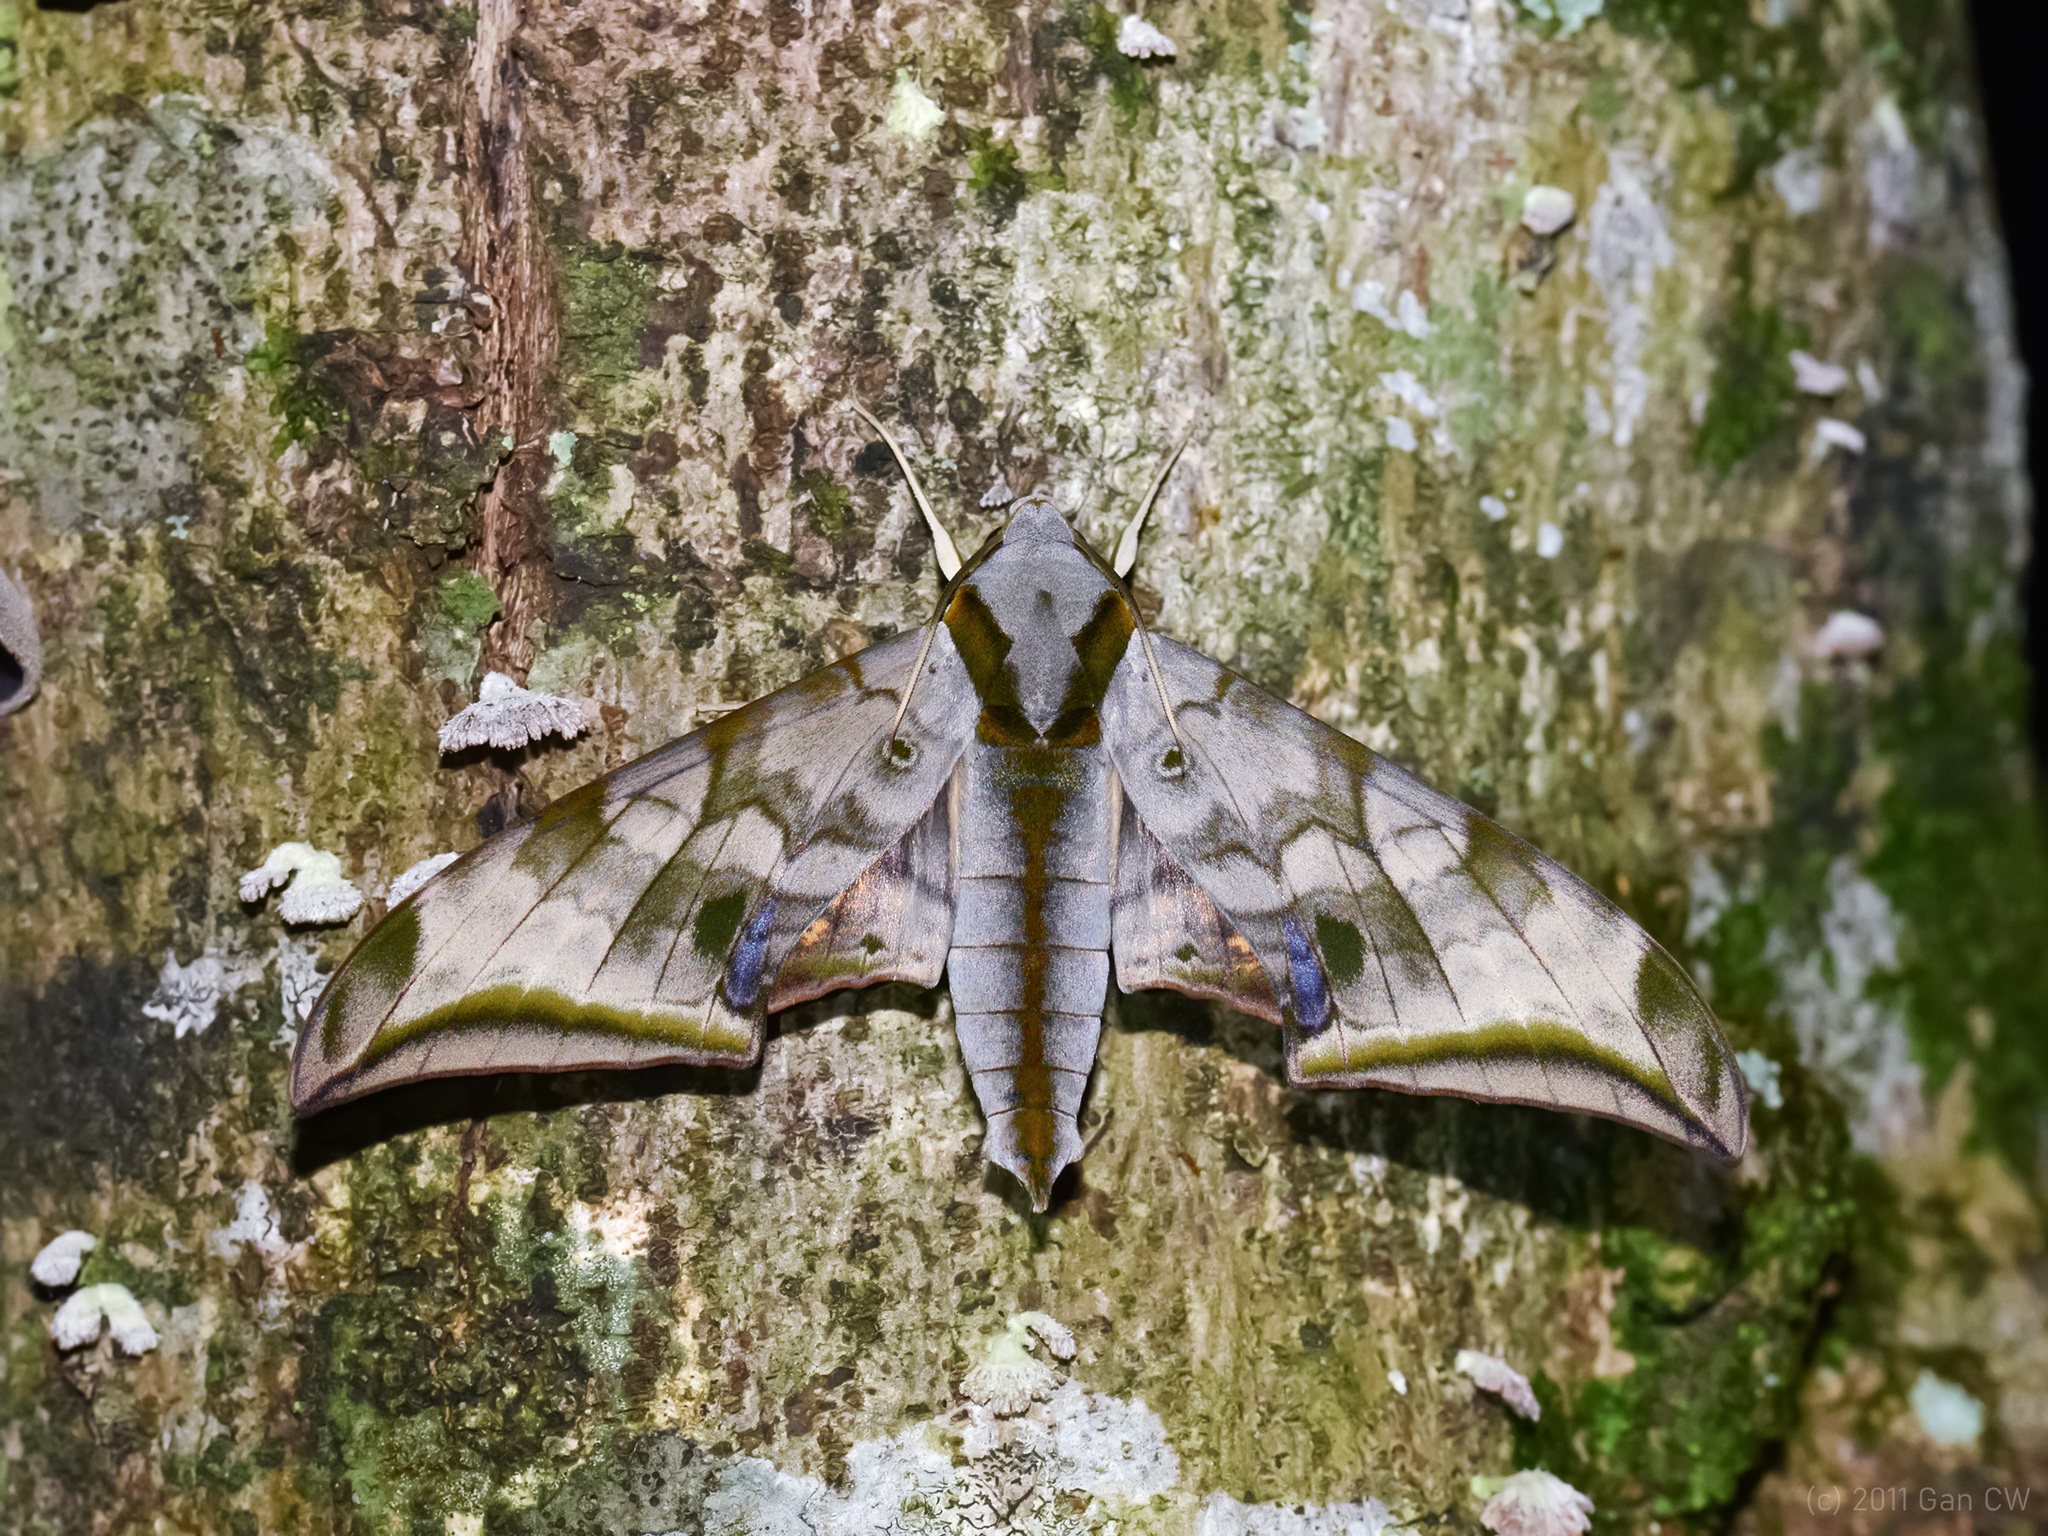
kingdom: Animalia
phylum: Arthropoda
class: Insecta
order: Lepidoptera
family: Sphingidae
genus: Ambulyx
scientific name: Ambulyx immaculata
